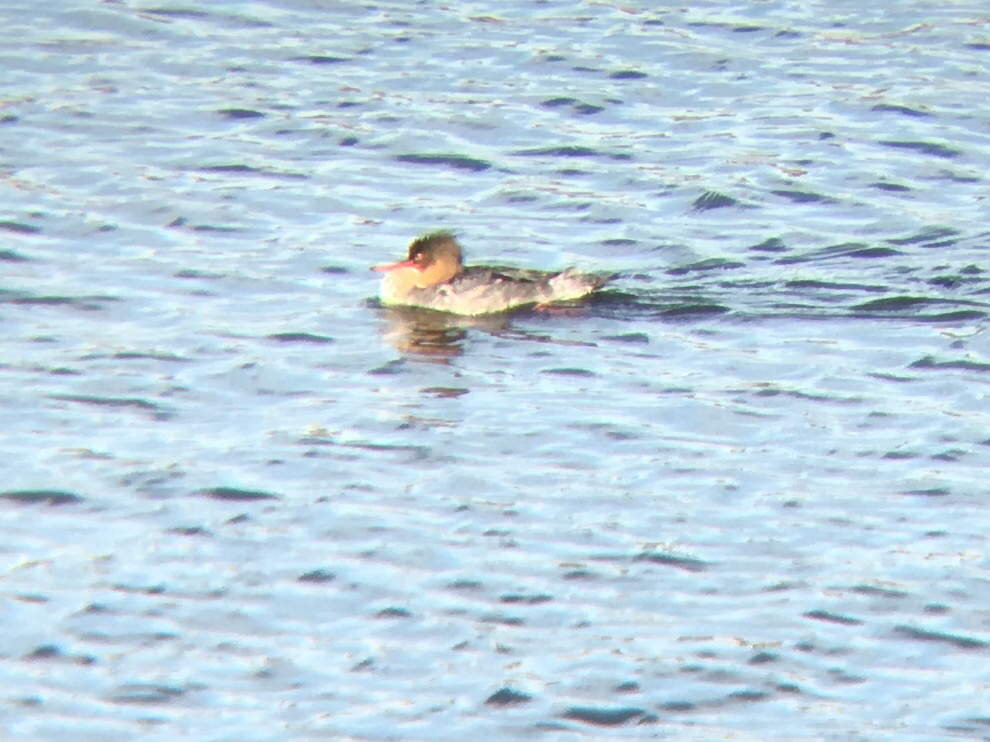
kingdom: Animalia
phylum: Chordata
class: Aves
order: Anseriformes
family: Anatidae
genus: Mergus
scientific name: Mergus serrator
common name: Red-breasted merganser
